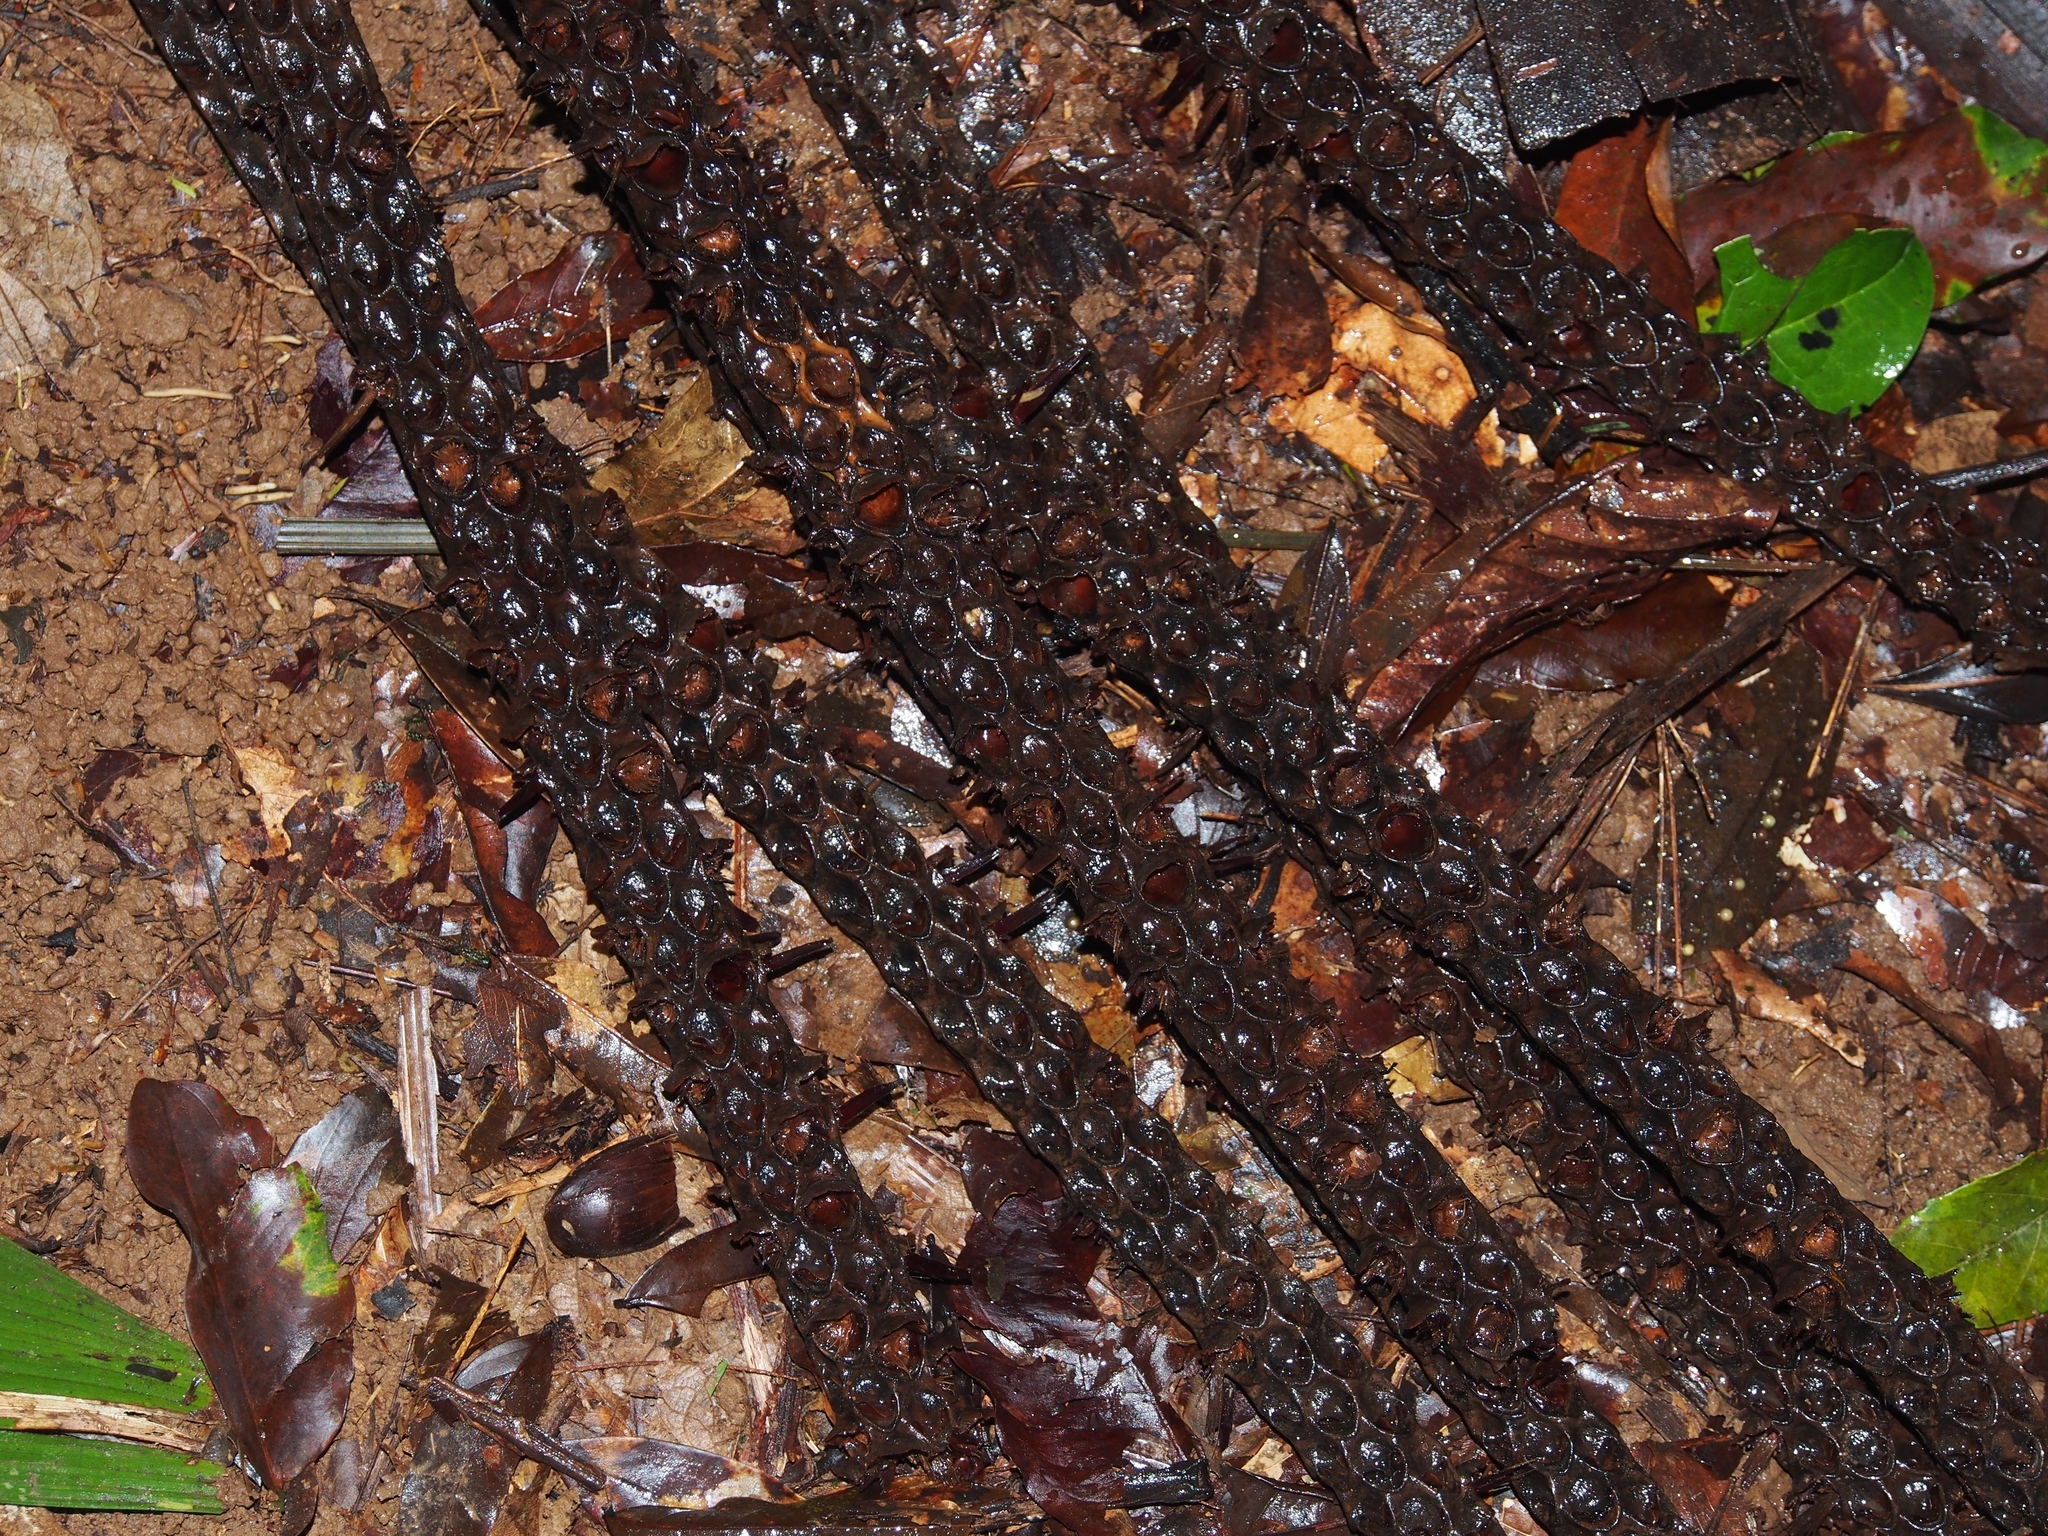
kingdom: Plantae
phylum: Tracheophyta
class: Liliopsida
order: Arecales
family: Arecaceae
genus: Welfia
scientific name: Welfia regia
